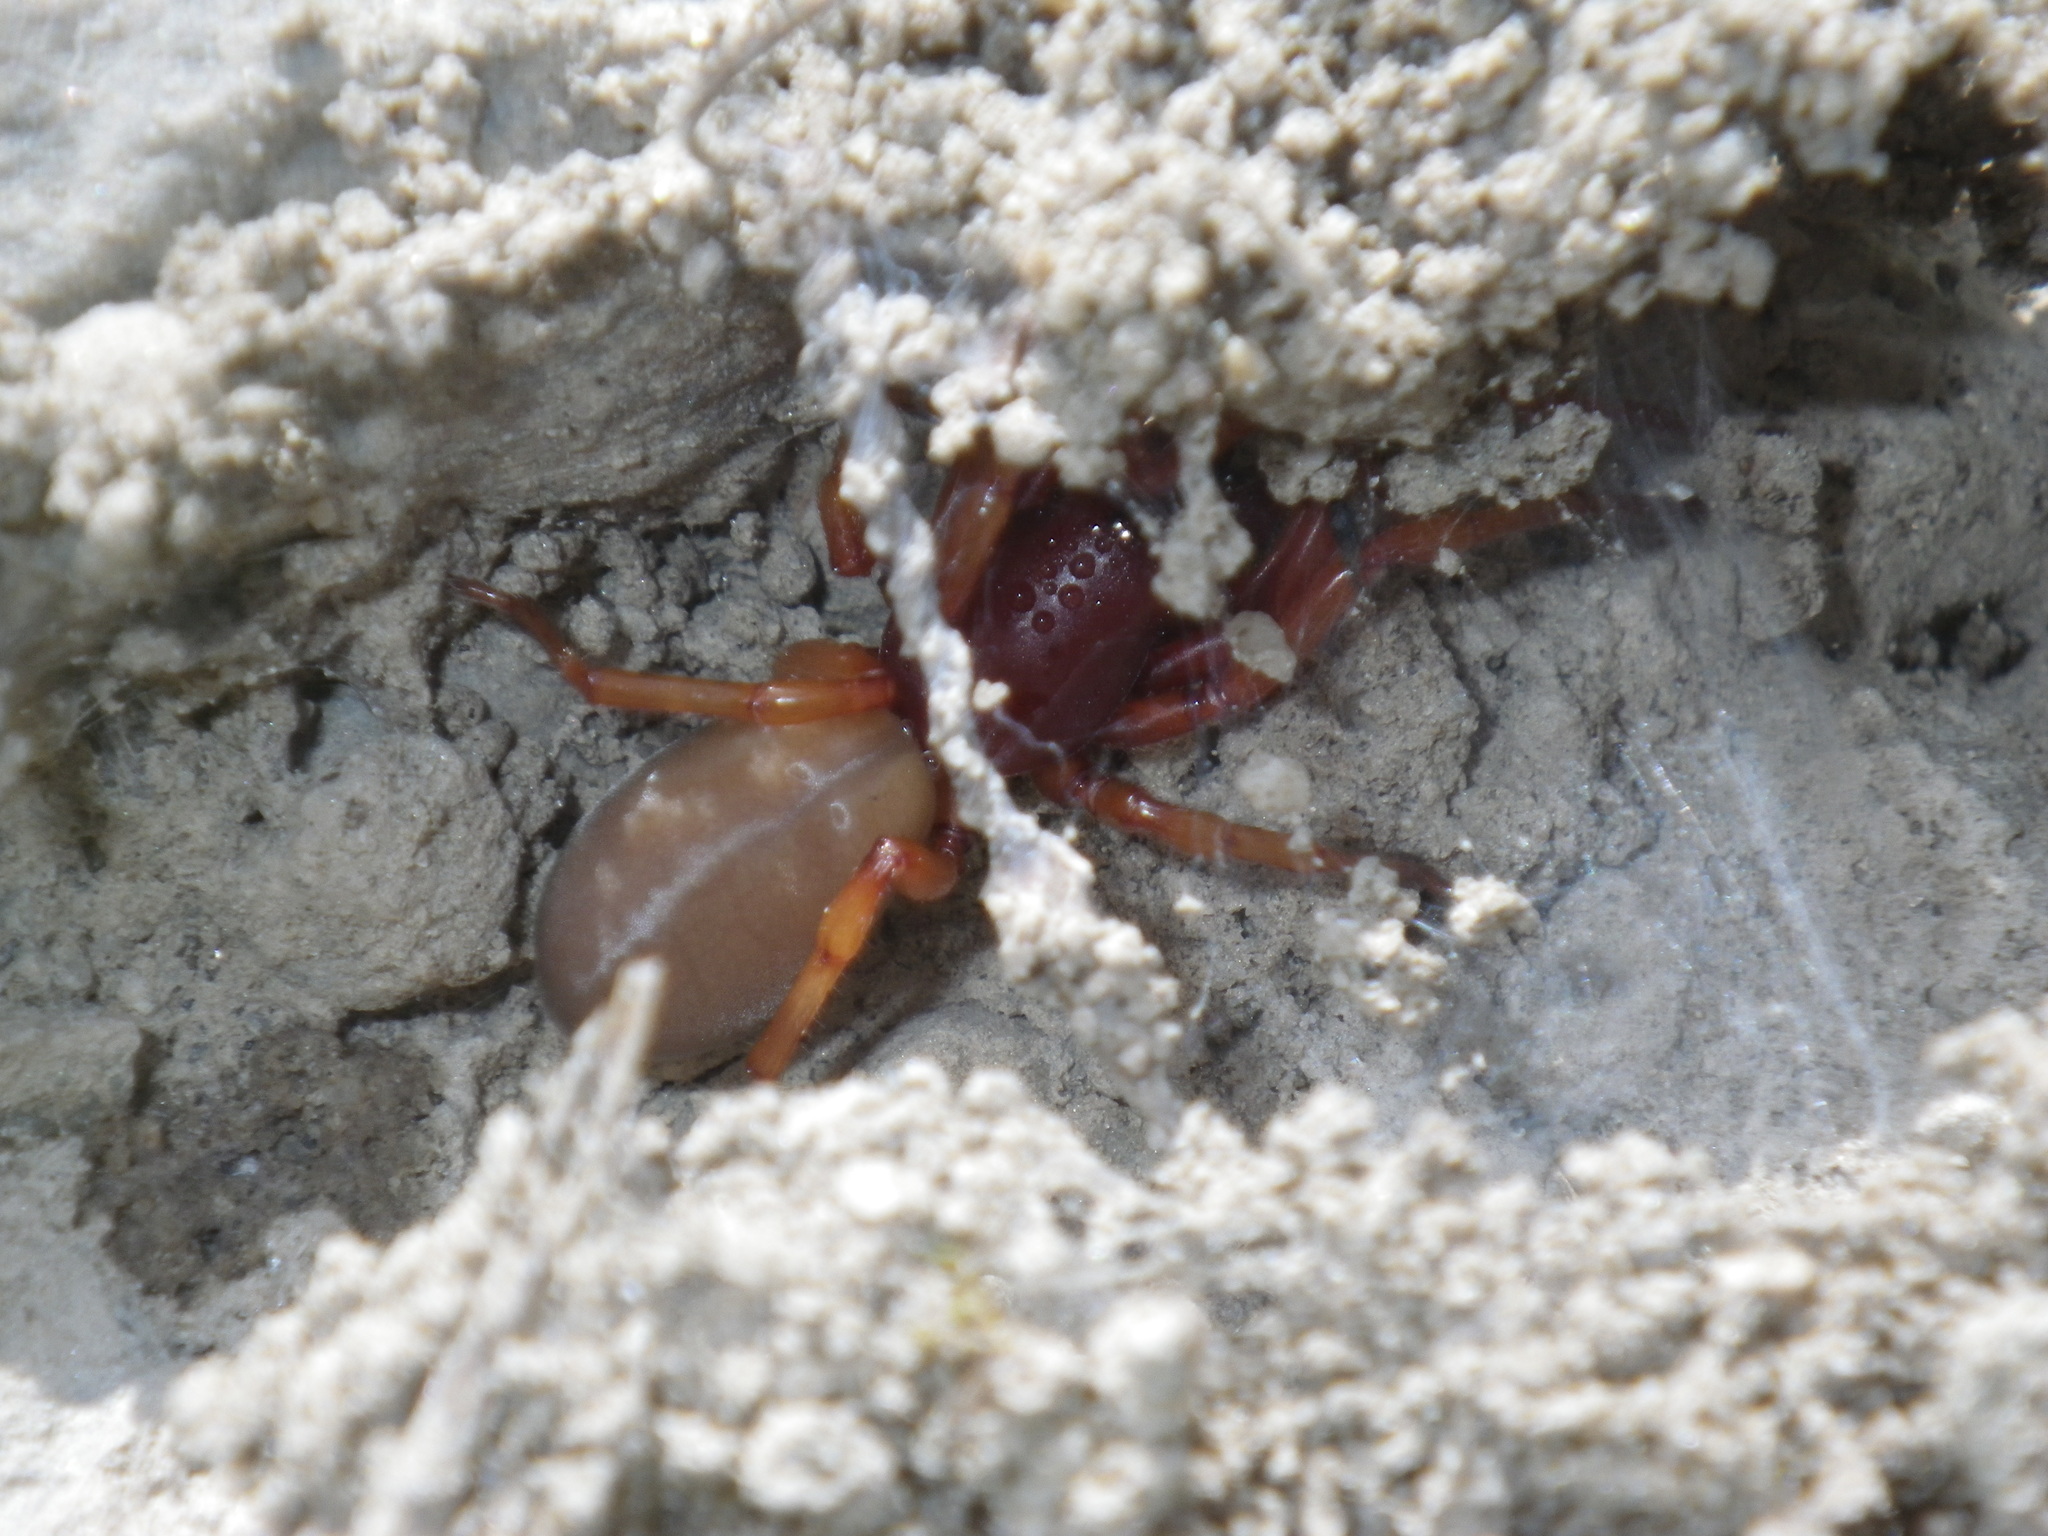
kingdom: Animalia
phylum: Arthropoda
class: Arachnida
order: Araneae
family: Dysderidae
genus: Dysdera
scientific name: Dysdera crocata
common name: Woodlouse spider
